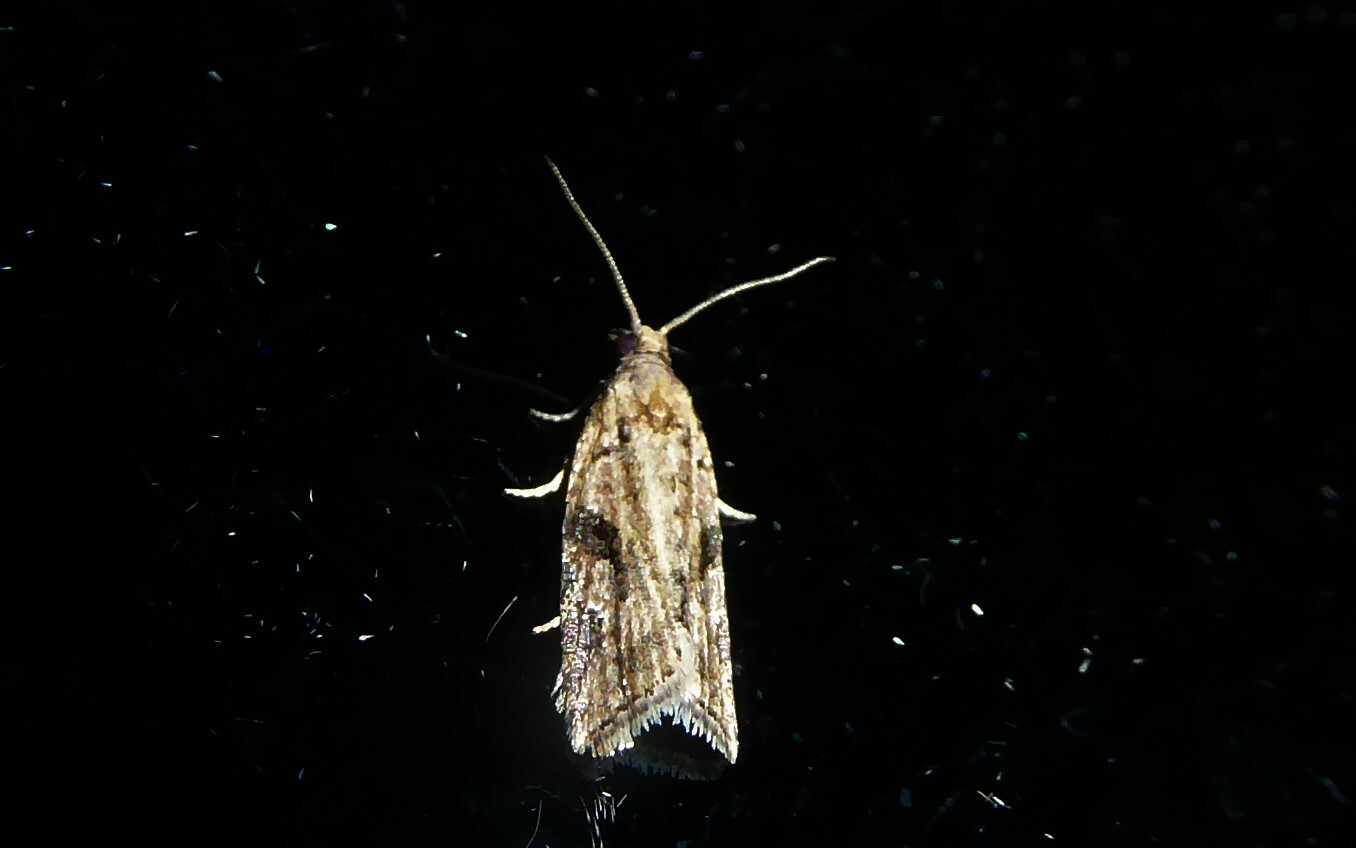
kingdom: Animalia
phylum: Arthropoda
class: Insecta
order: Lepidoptera
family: Tortricidae
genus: Capua
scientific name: Capua semiferana
